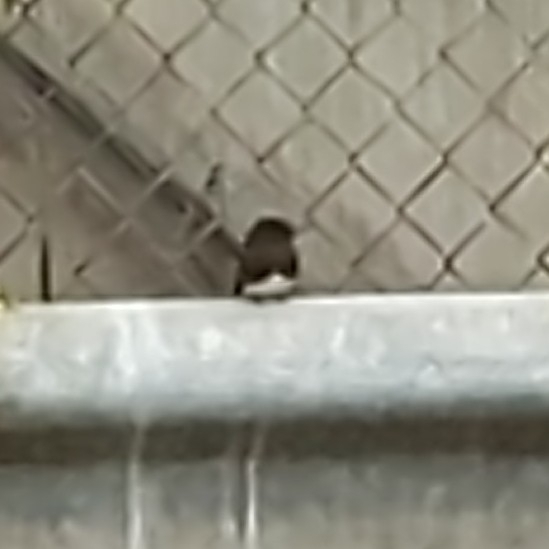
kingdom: Animalia
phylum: Chordata
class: Aves
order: Passeriformes
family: Tyrannidae
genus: Sayornis
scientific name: Sayornis nigricans
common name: Black phoebe
